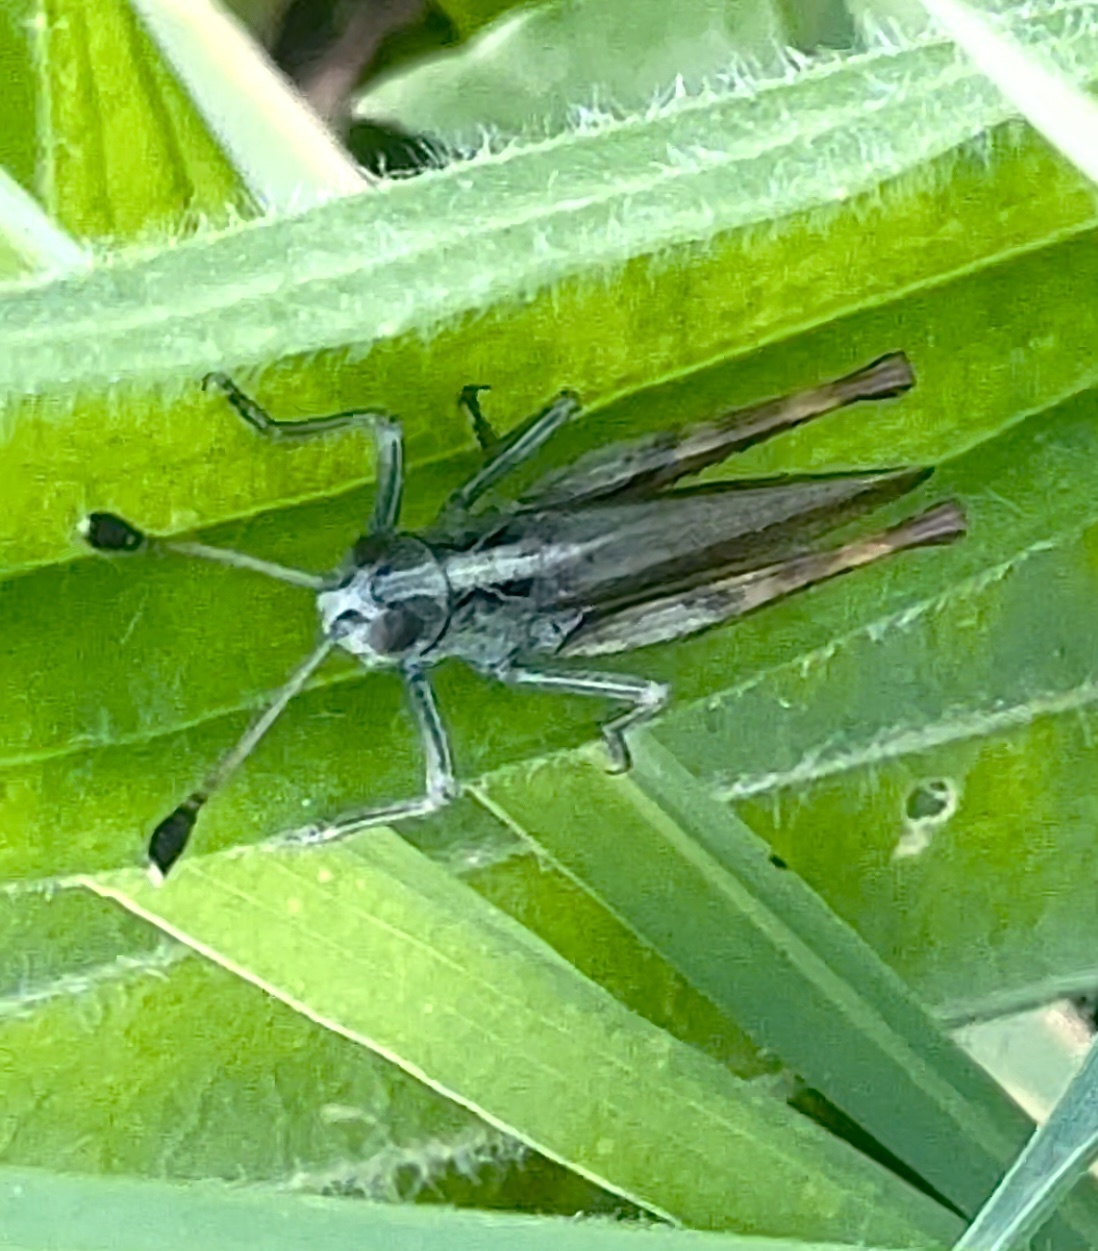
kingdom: Animalia
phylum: Arthropoda
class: Insecta
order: Orthoptera
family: Acrididae
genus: Gomphocerippus
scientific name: Gomphocerippus rufus
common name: Rufous grasshopper
